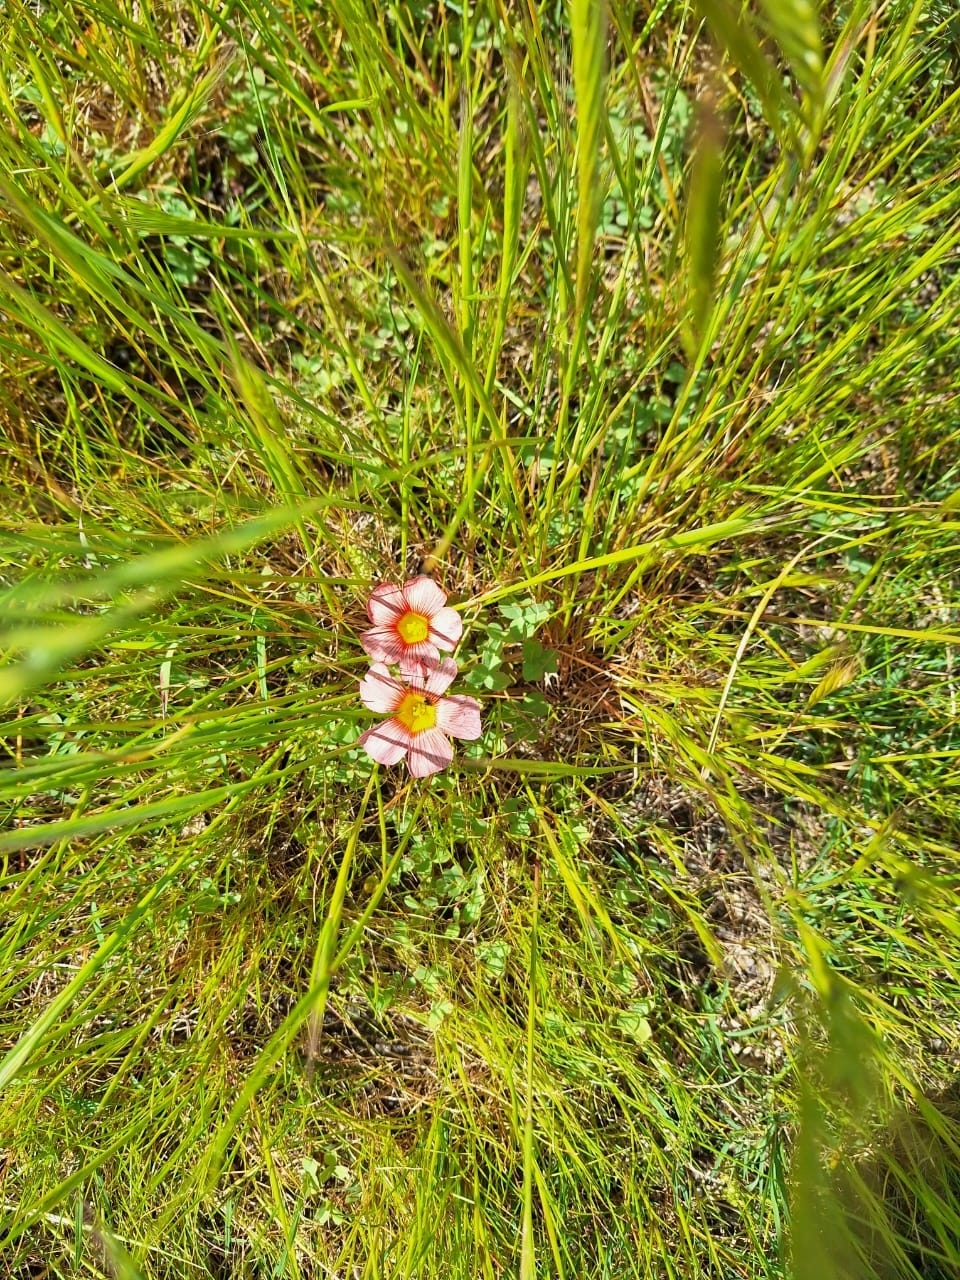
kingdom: Plantae
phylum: Tracheophyta
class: Magnoliopsida
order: Oxalidales
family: Oxalidaceae
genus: Oxalis
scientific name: Oxalis obtusa
